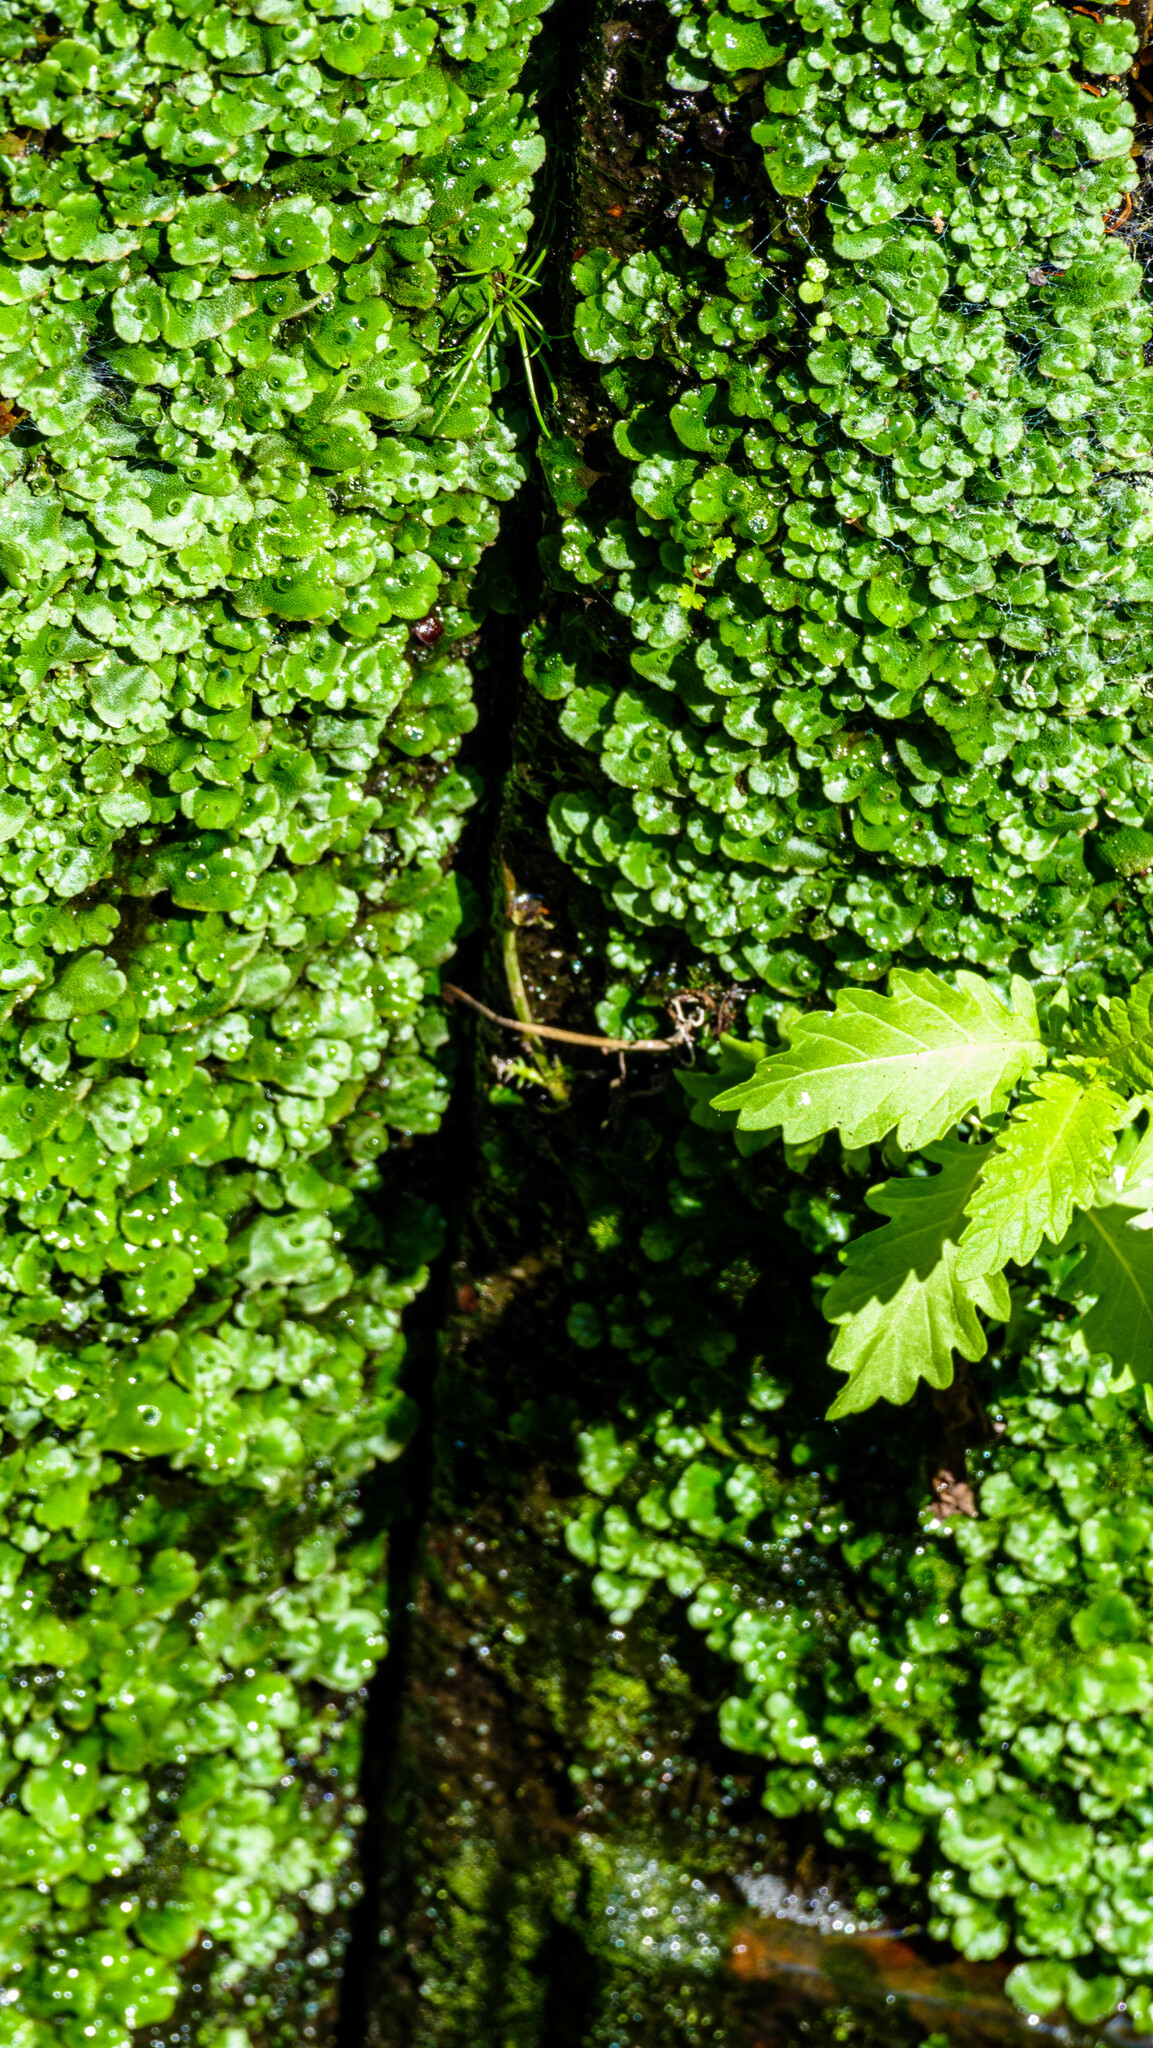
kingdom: Plantae
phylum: Marchantiophyta
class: Marchantiopsida
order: Marchantiales
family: Marchantiaceae
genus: Marchantia
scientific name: Marchantia polymorpha
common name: Common liverwort
